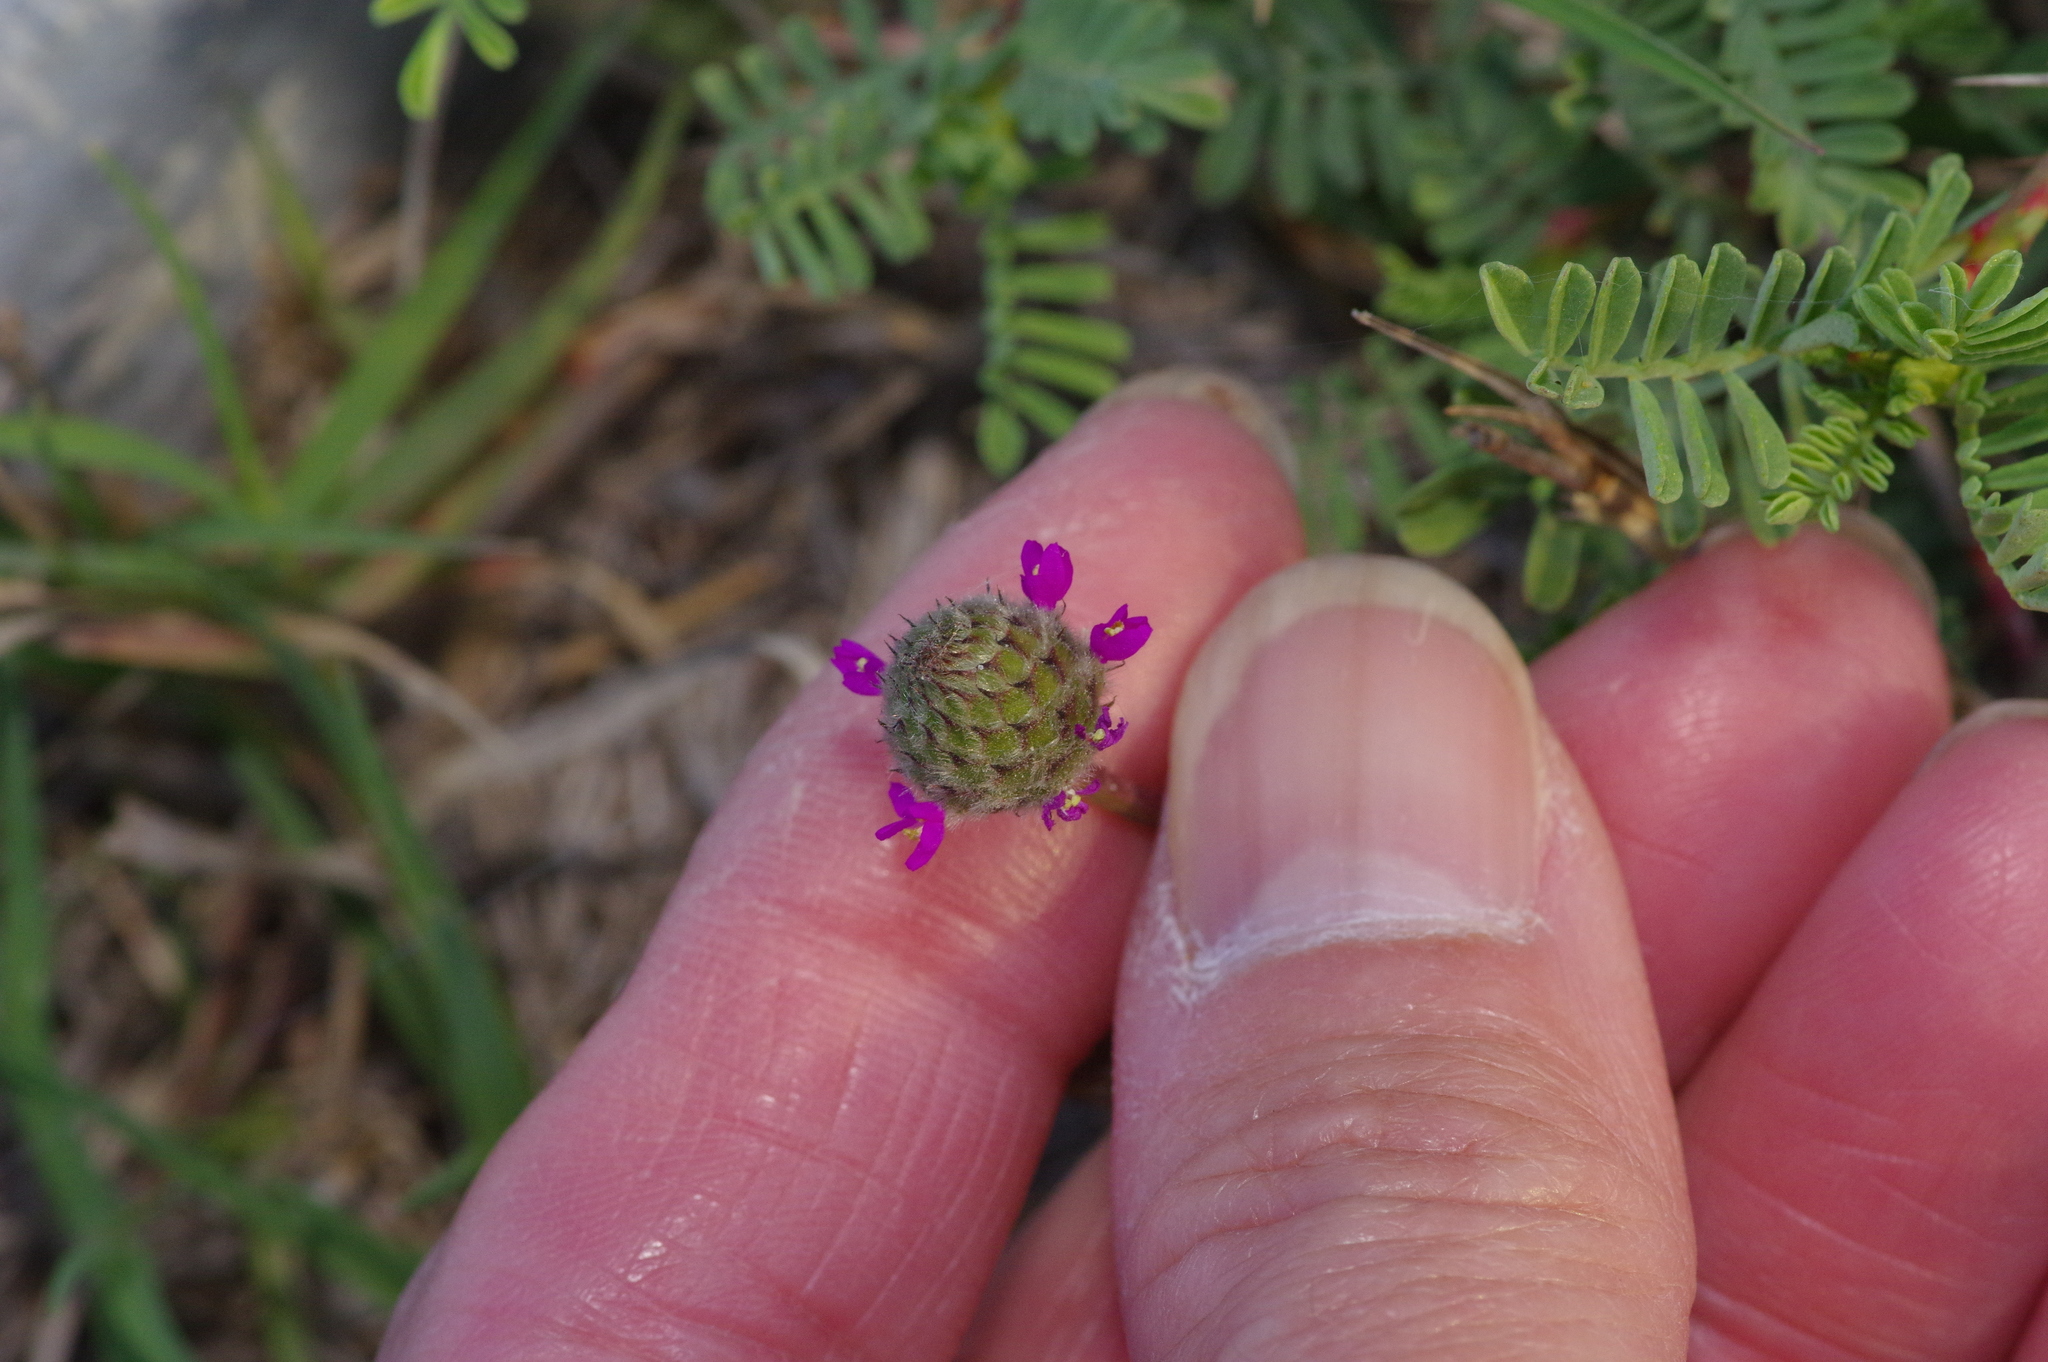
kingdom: Plantae
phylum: Tracheophyta
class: Magnoliopsida
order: Fabales
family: Fabaceae
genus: Dalea
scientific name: Dalea emarginata
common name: Wedgeleaf prairie clover
